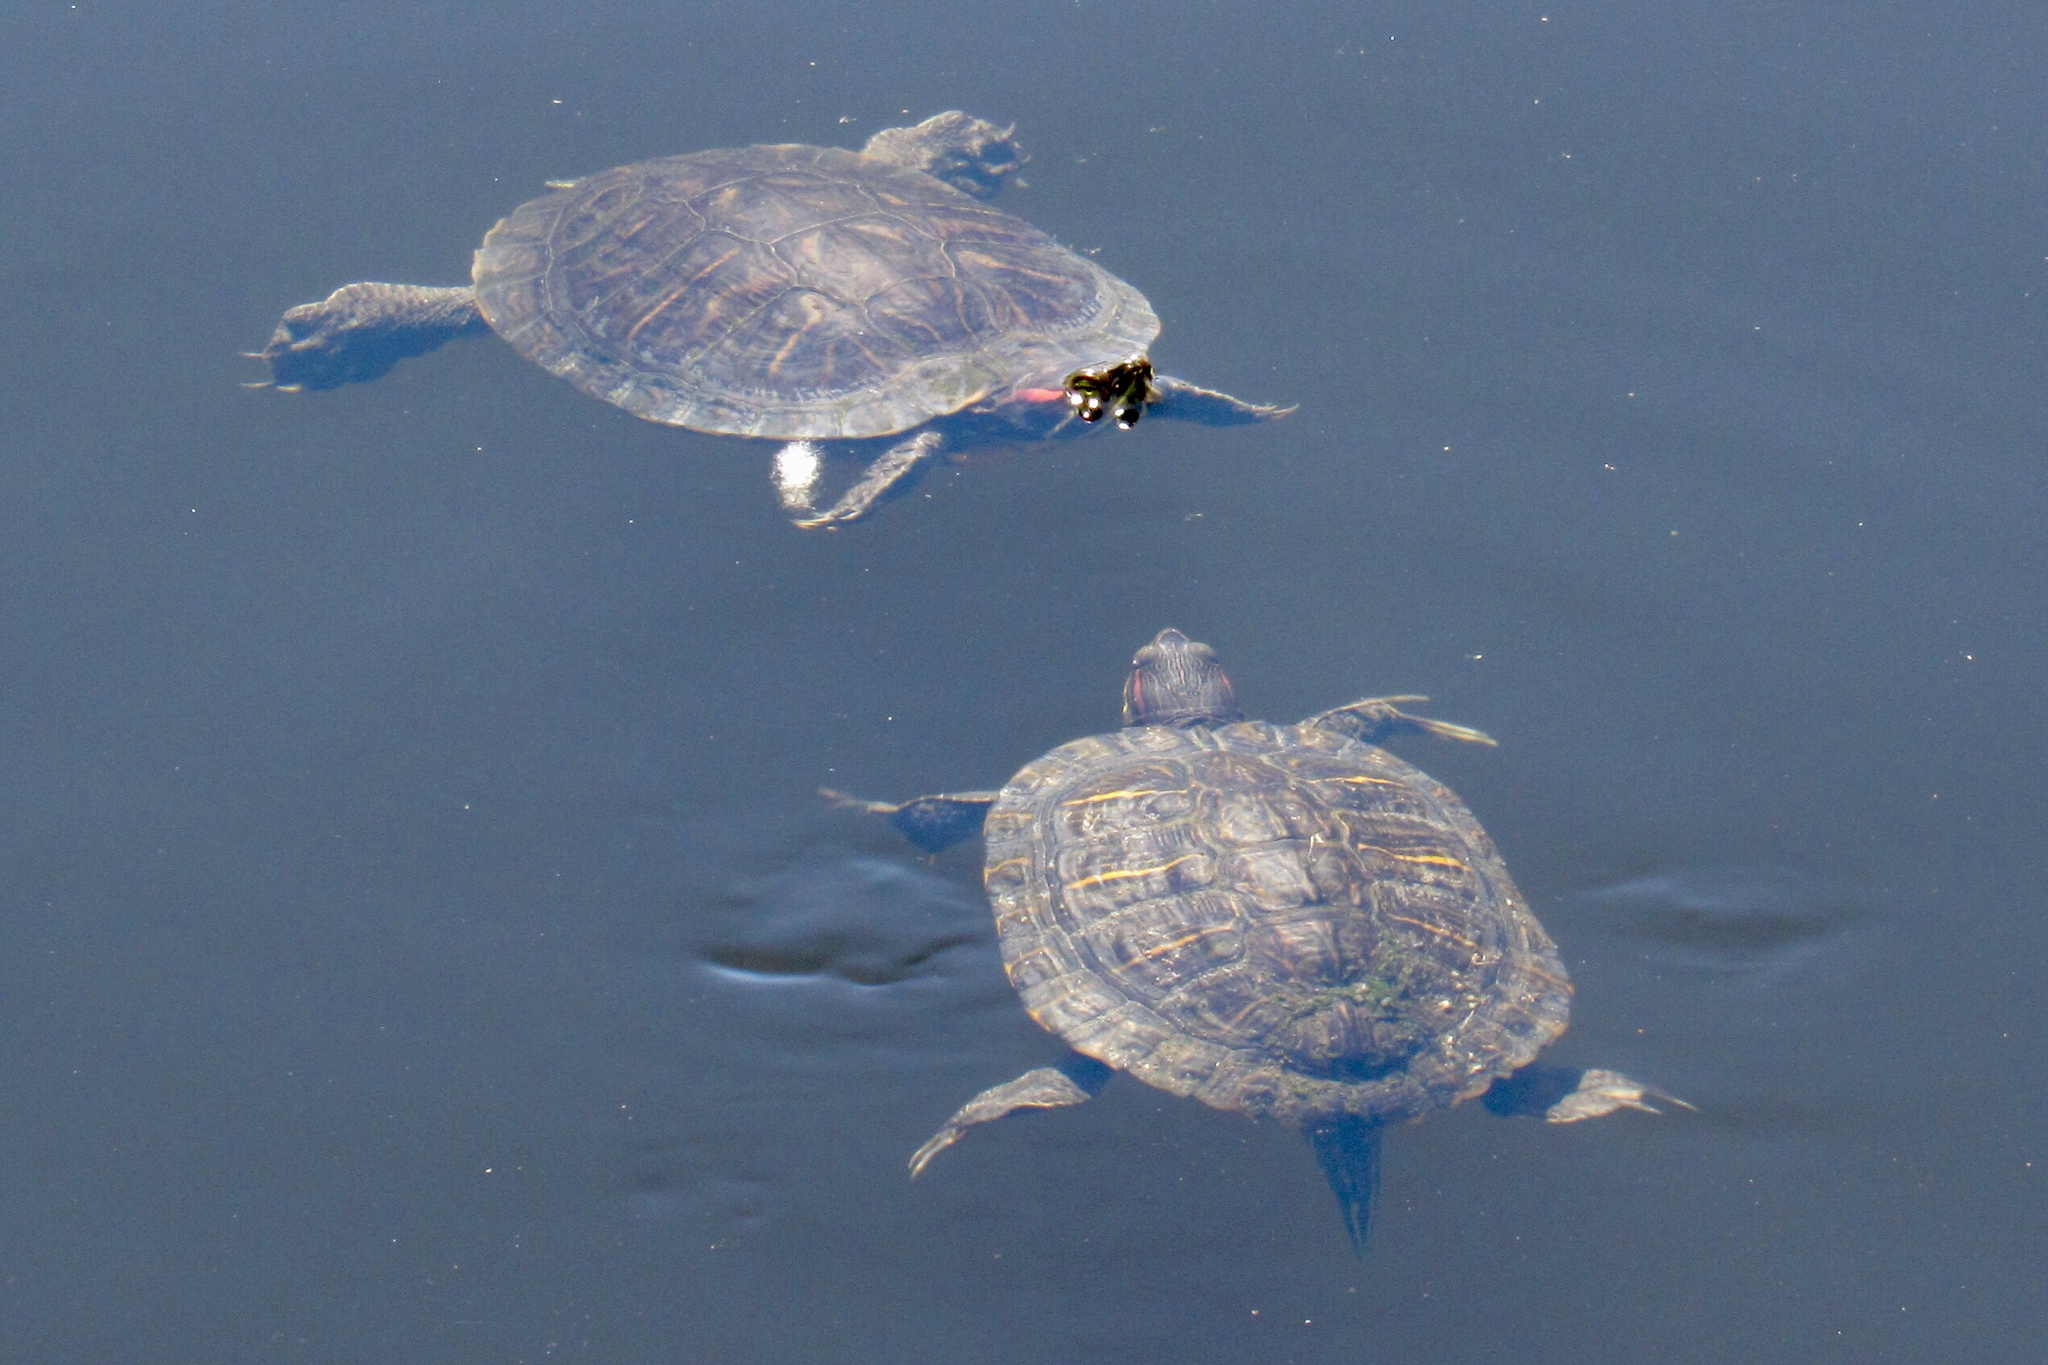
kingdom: Animalia
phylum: Chordata
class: Testudines
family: Emydidae
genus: Trachemys
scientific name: Trachemys scripta
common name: Slider
